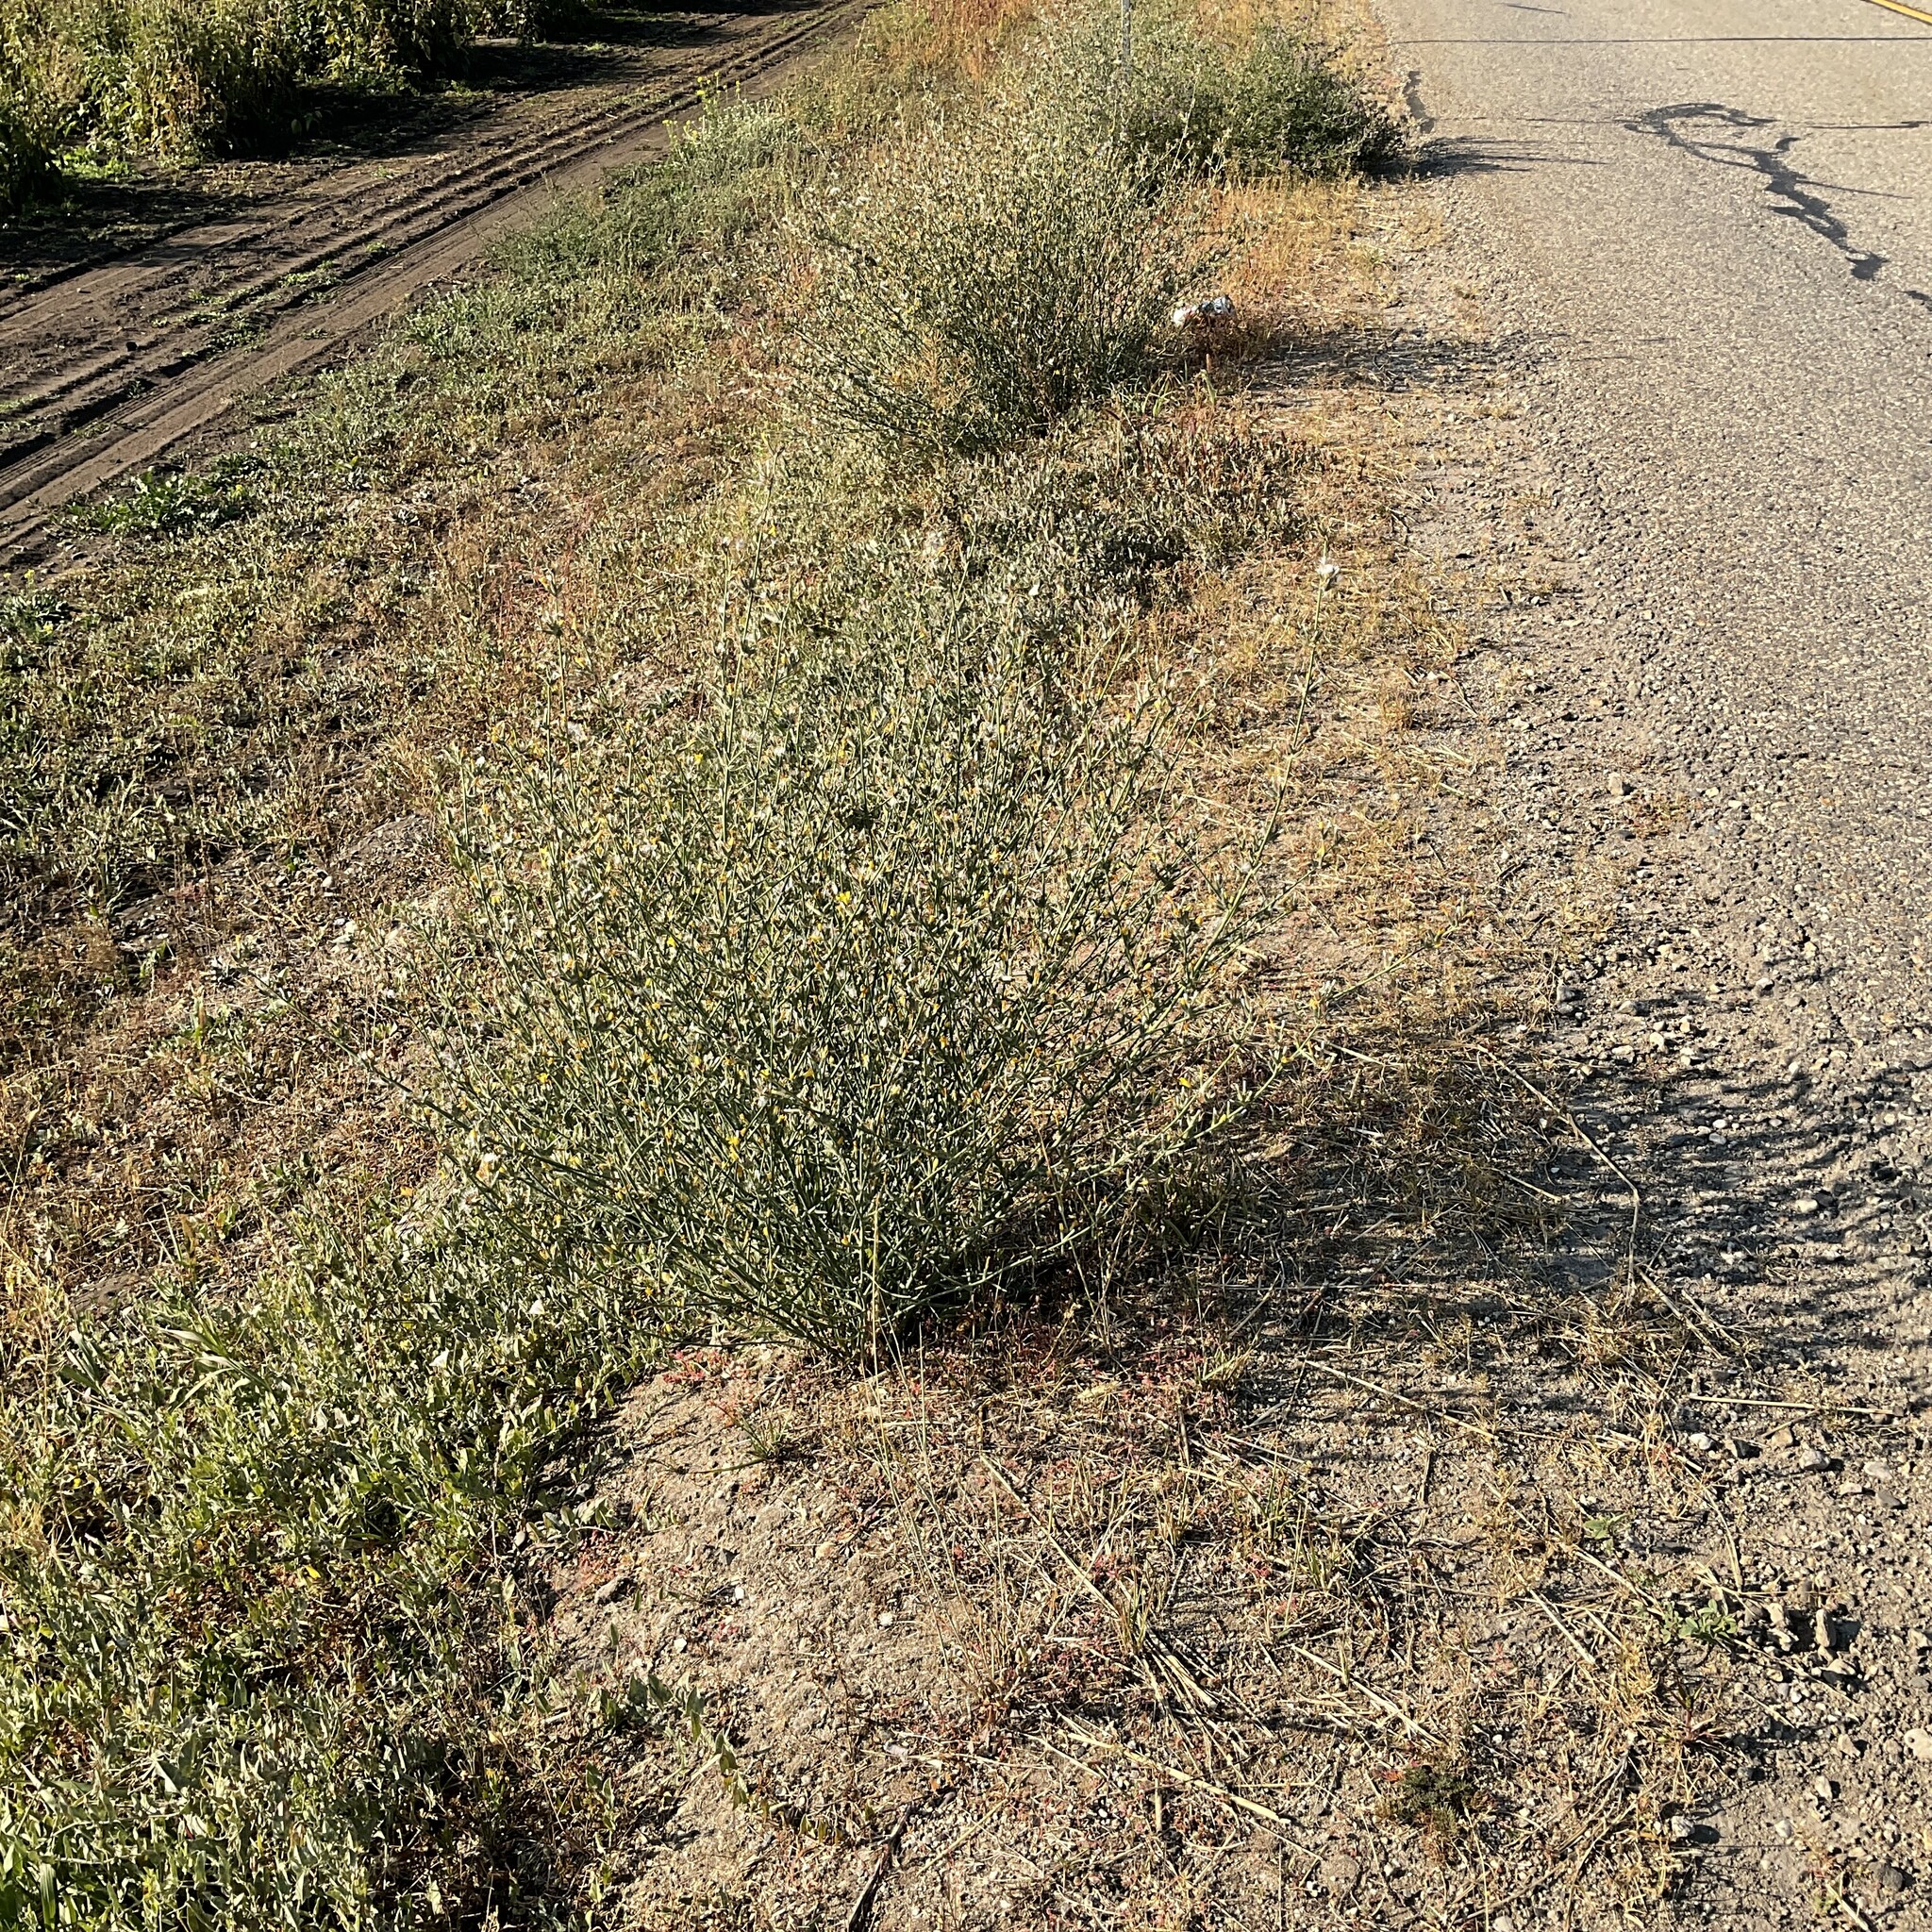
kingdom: Plantae
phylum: Tracheophyta
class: Magnoliopsida
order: Asterales
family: Asteraceae
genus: Chondrilla
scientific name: Chondrilla juncea
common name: Skeleton weed
